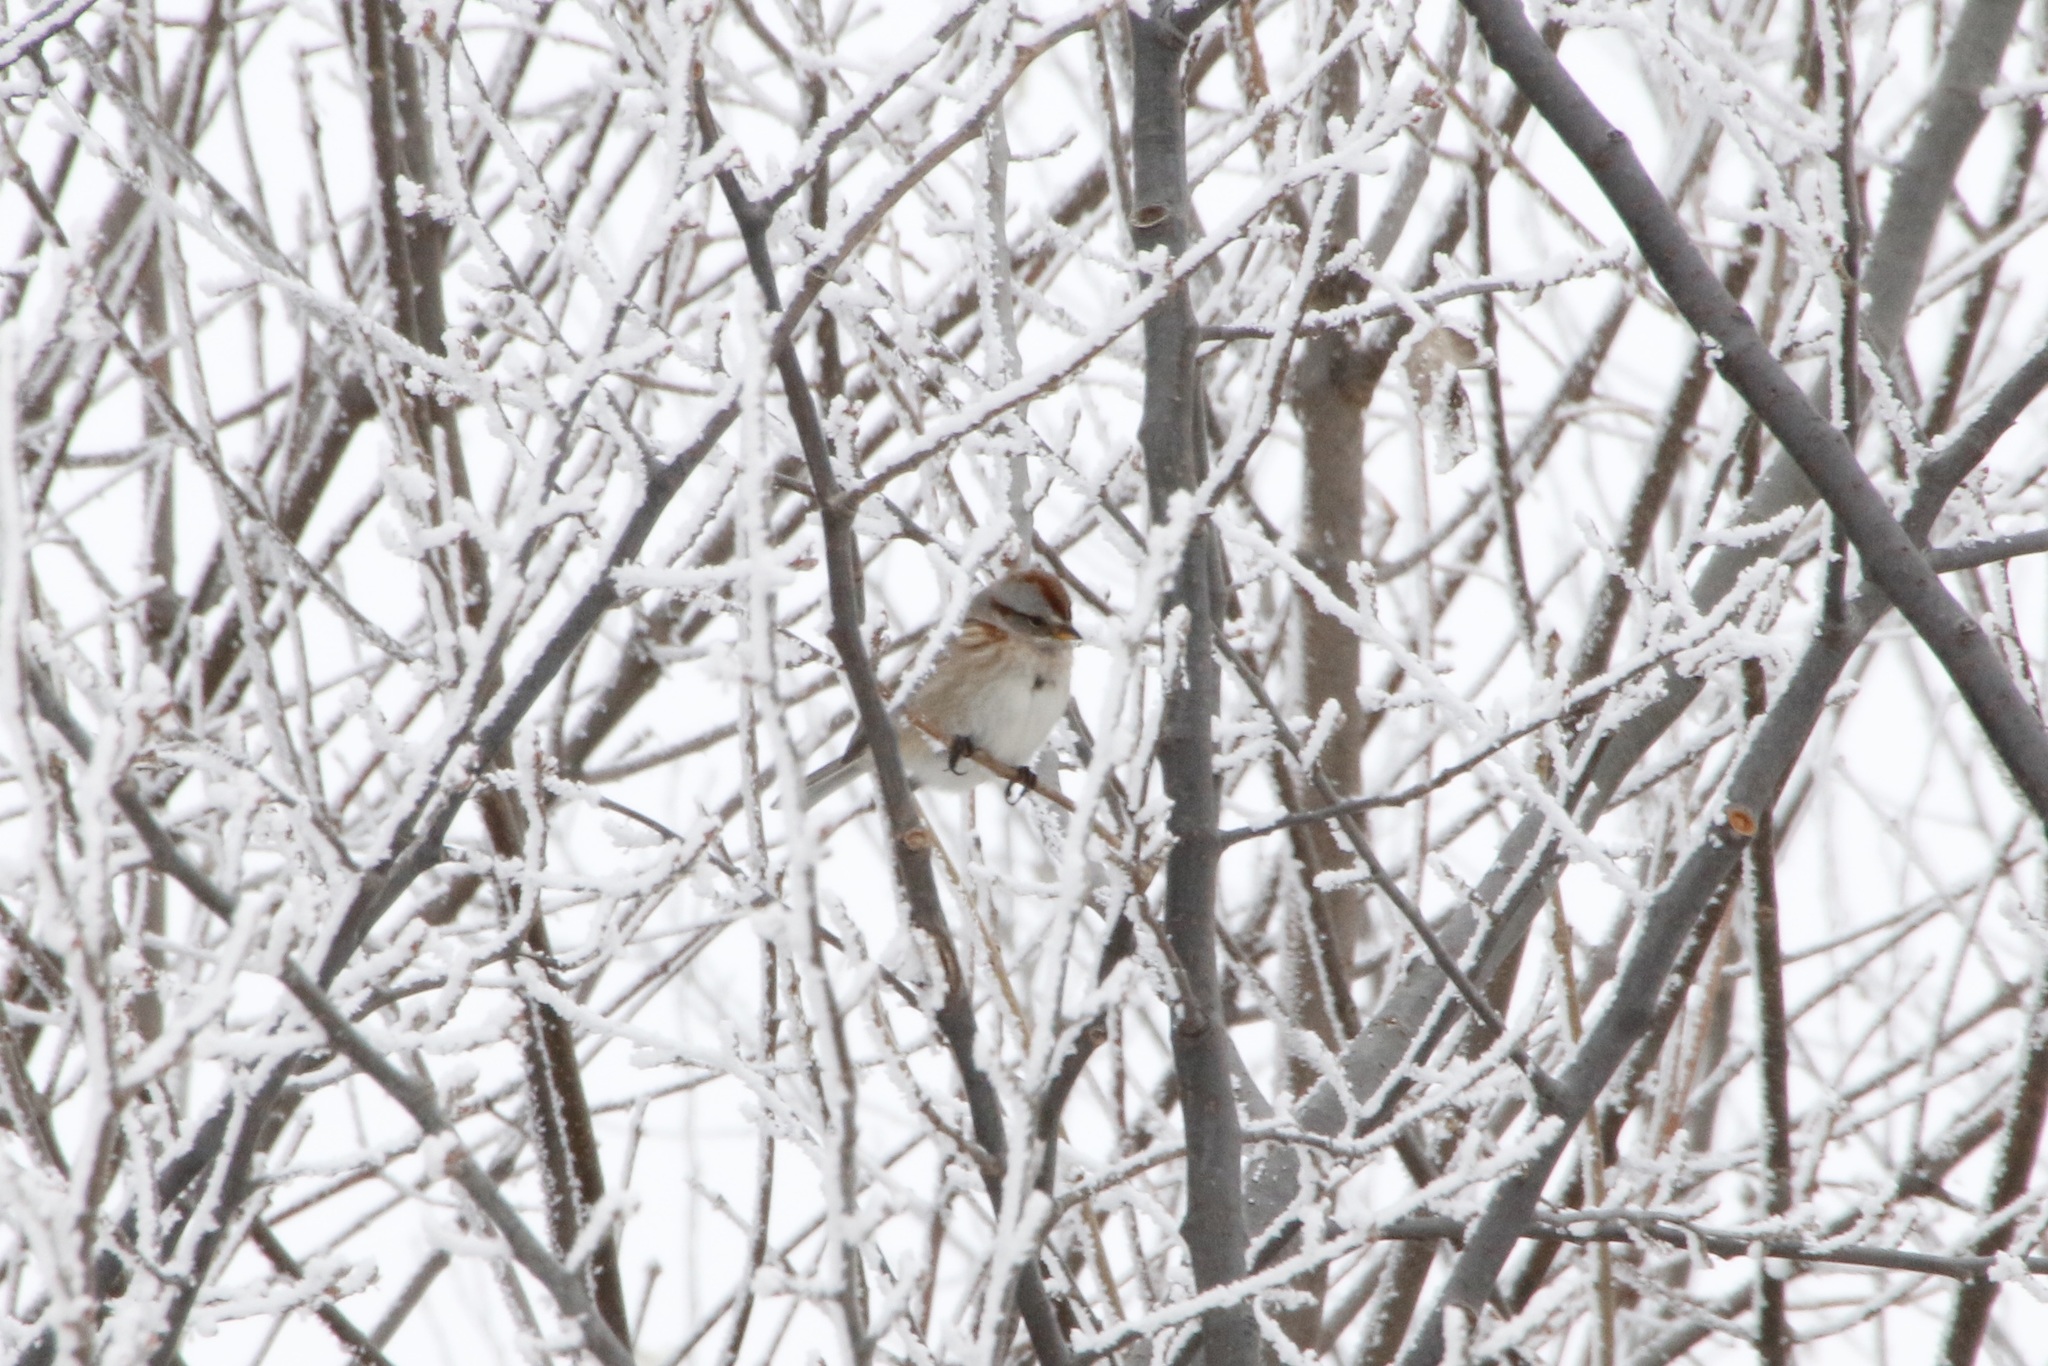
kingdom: Animalia
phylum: Chordata
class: Aves
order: Passeriformes
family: Passerellidae
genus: Spizelloides
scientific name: Spizelloides arborea
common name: American tree sparrow
